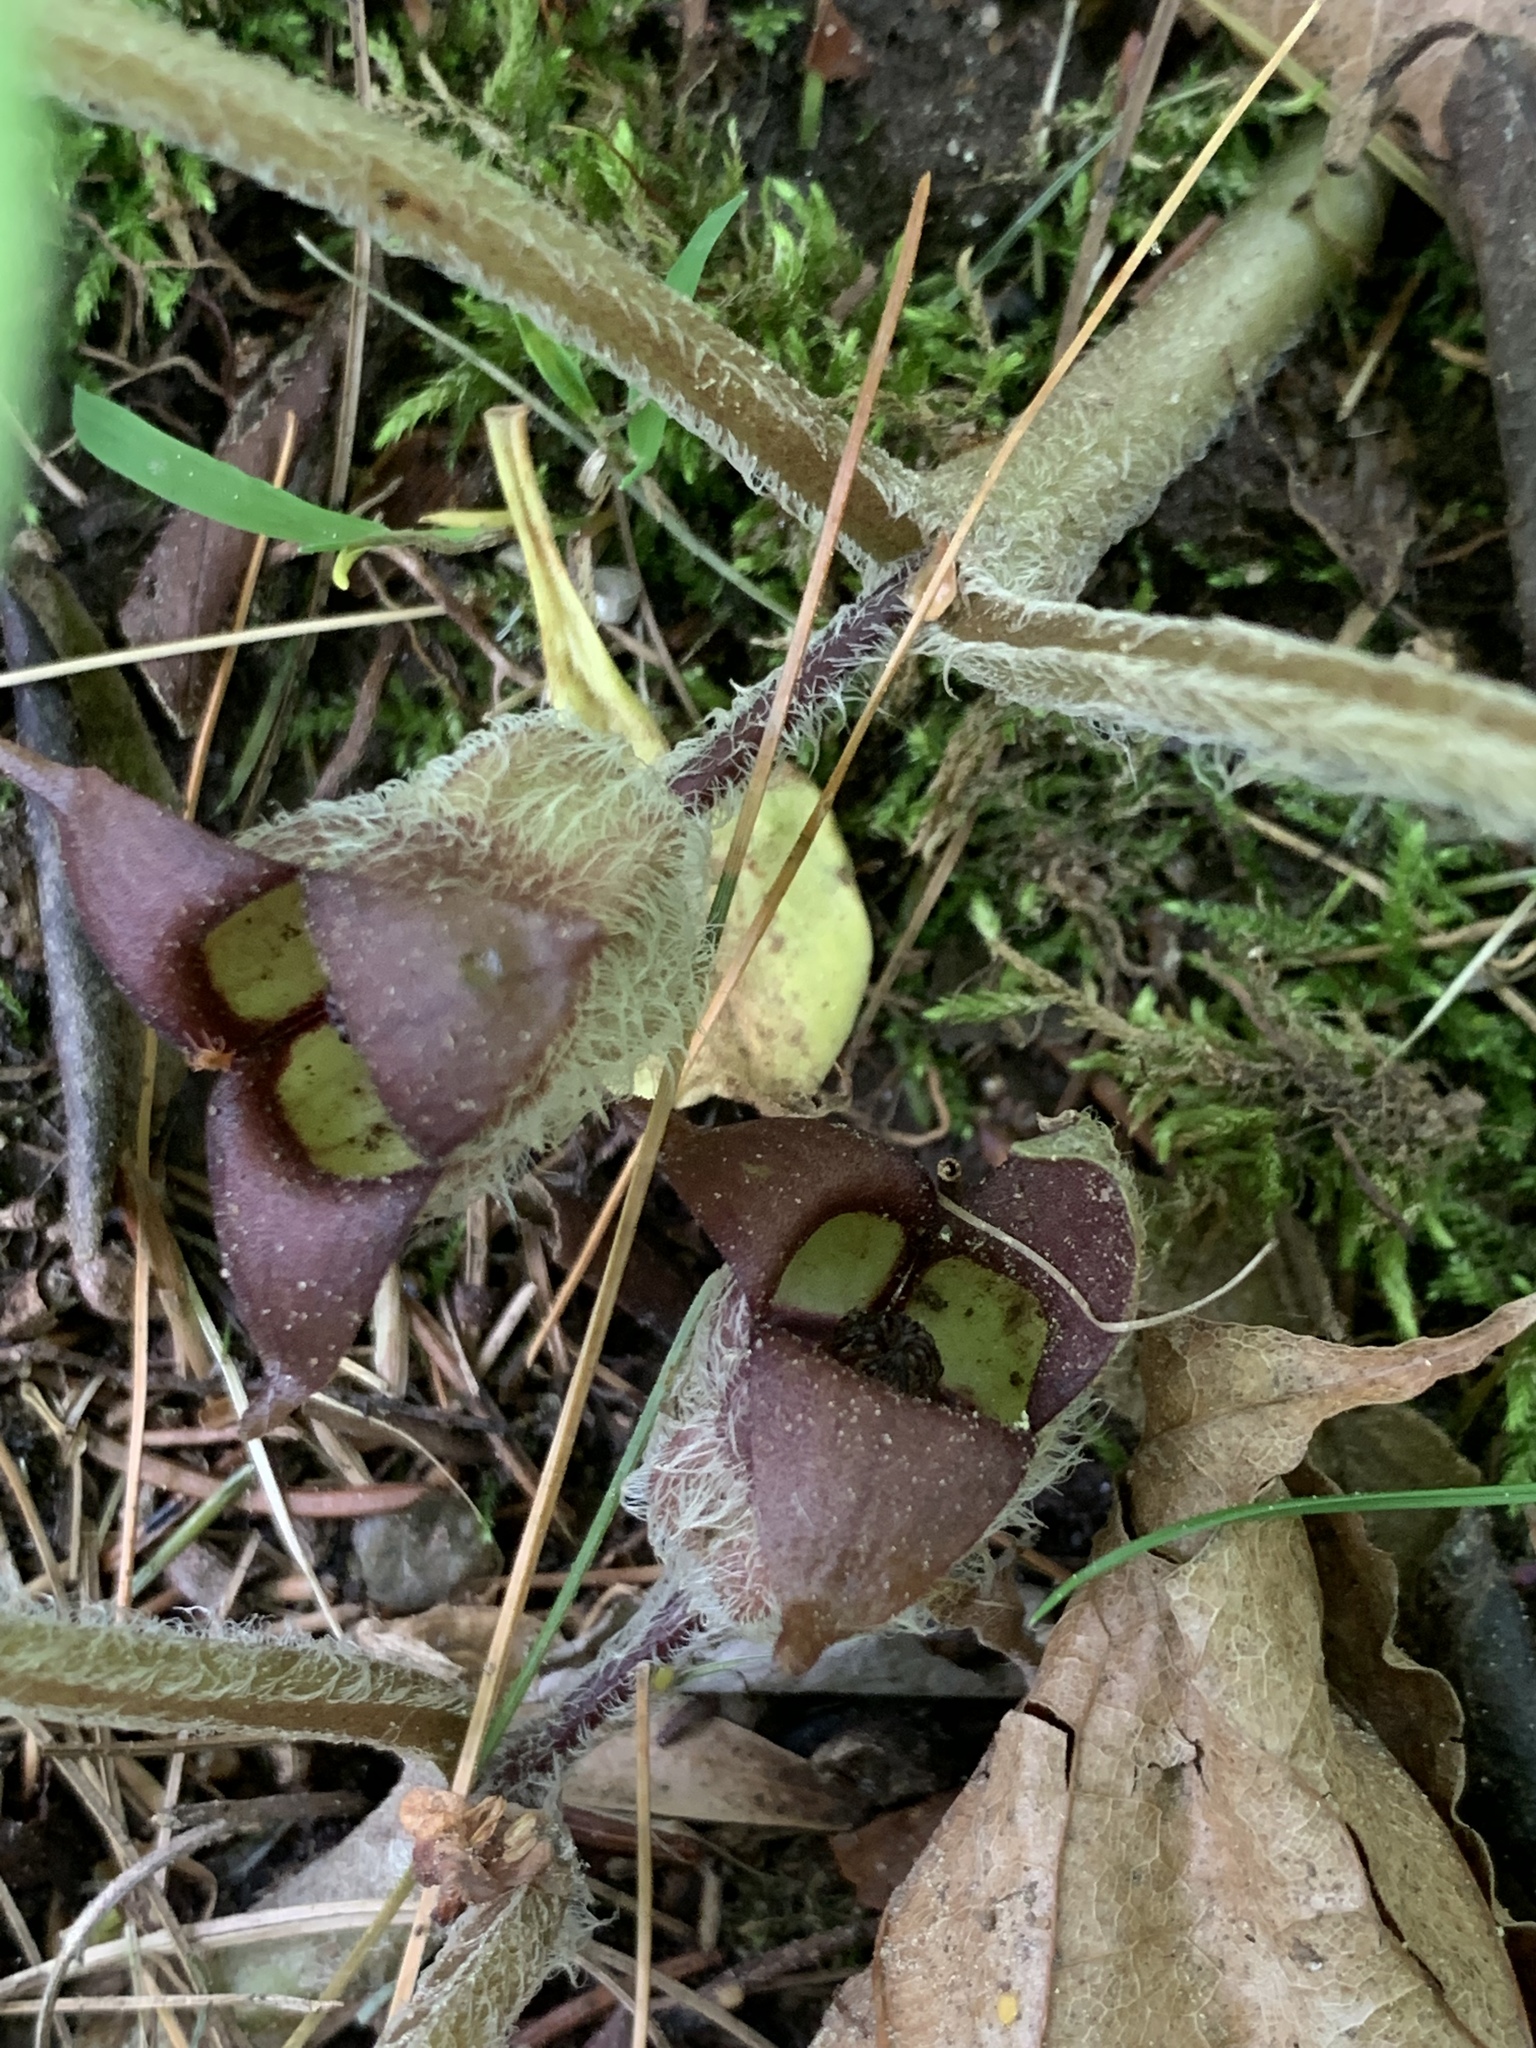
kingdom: Plantae
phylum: Tracheophyta
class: Magnoliopsida
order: Piperales
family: Aristolochiaceae
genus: Asarum
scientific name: Asarum canadense
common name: Wild ginger
